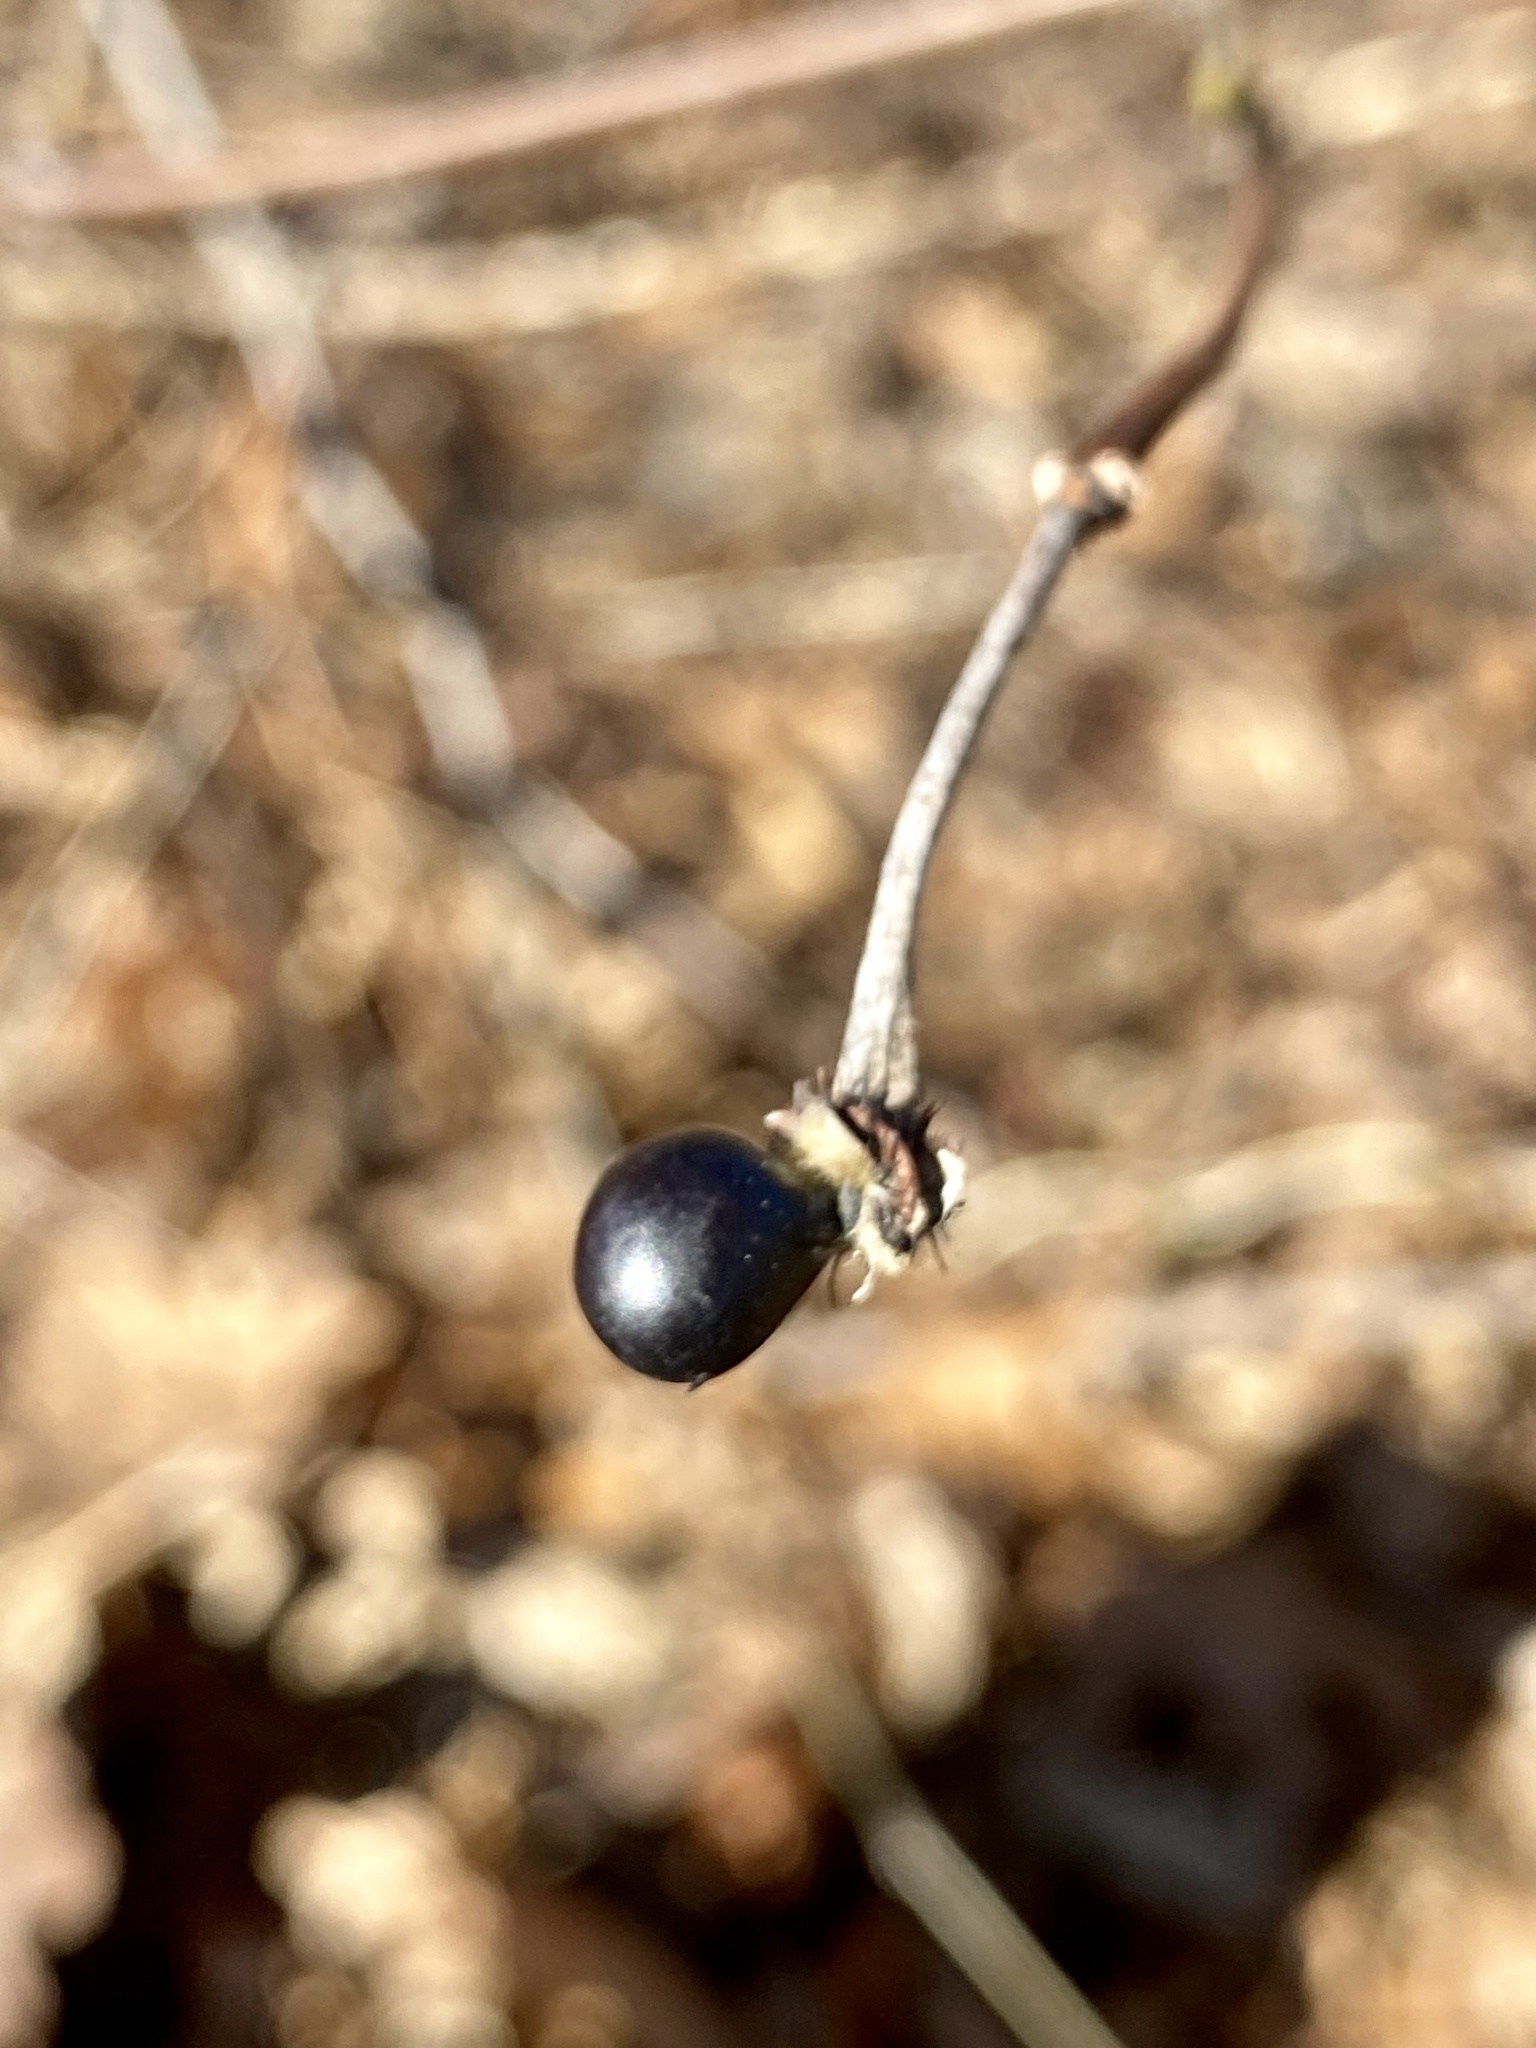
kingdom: Plantae
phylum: Tracheophyta
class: Magnoliopsida
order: Rosales
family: Rosaceae
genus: Rhodotypos
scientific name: Rhodotypos scandens
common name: Jetbead
